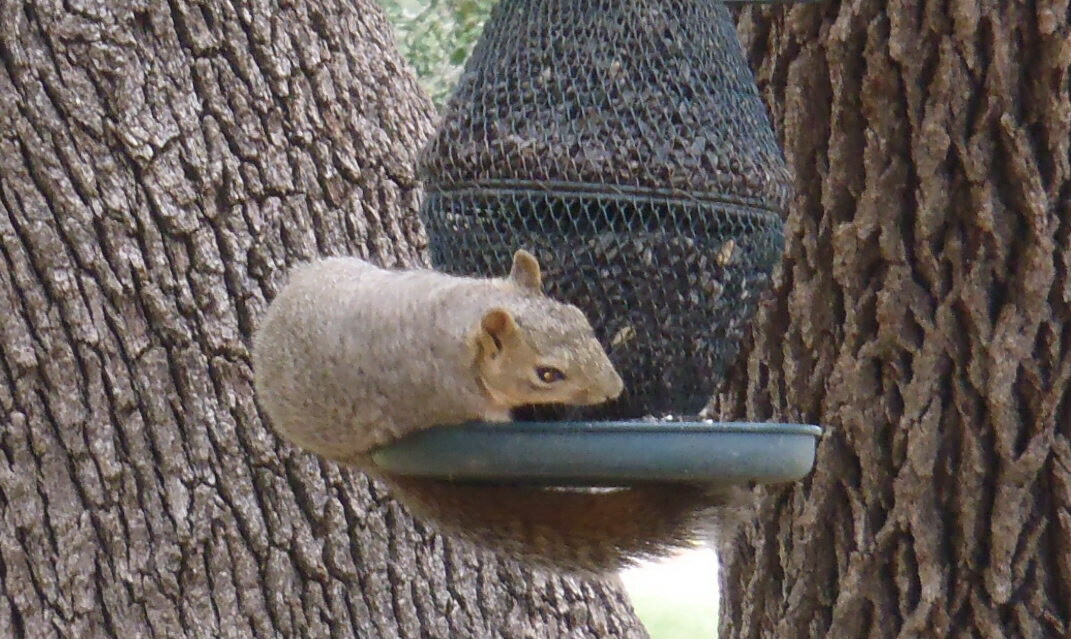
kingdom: Animalia
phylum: Chordata
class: Mammalia
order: Rodentia
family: Sciuridae
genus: Sciurus
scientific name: Sciurus niger
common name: Fox squirrel
